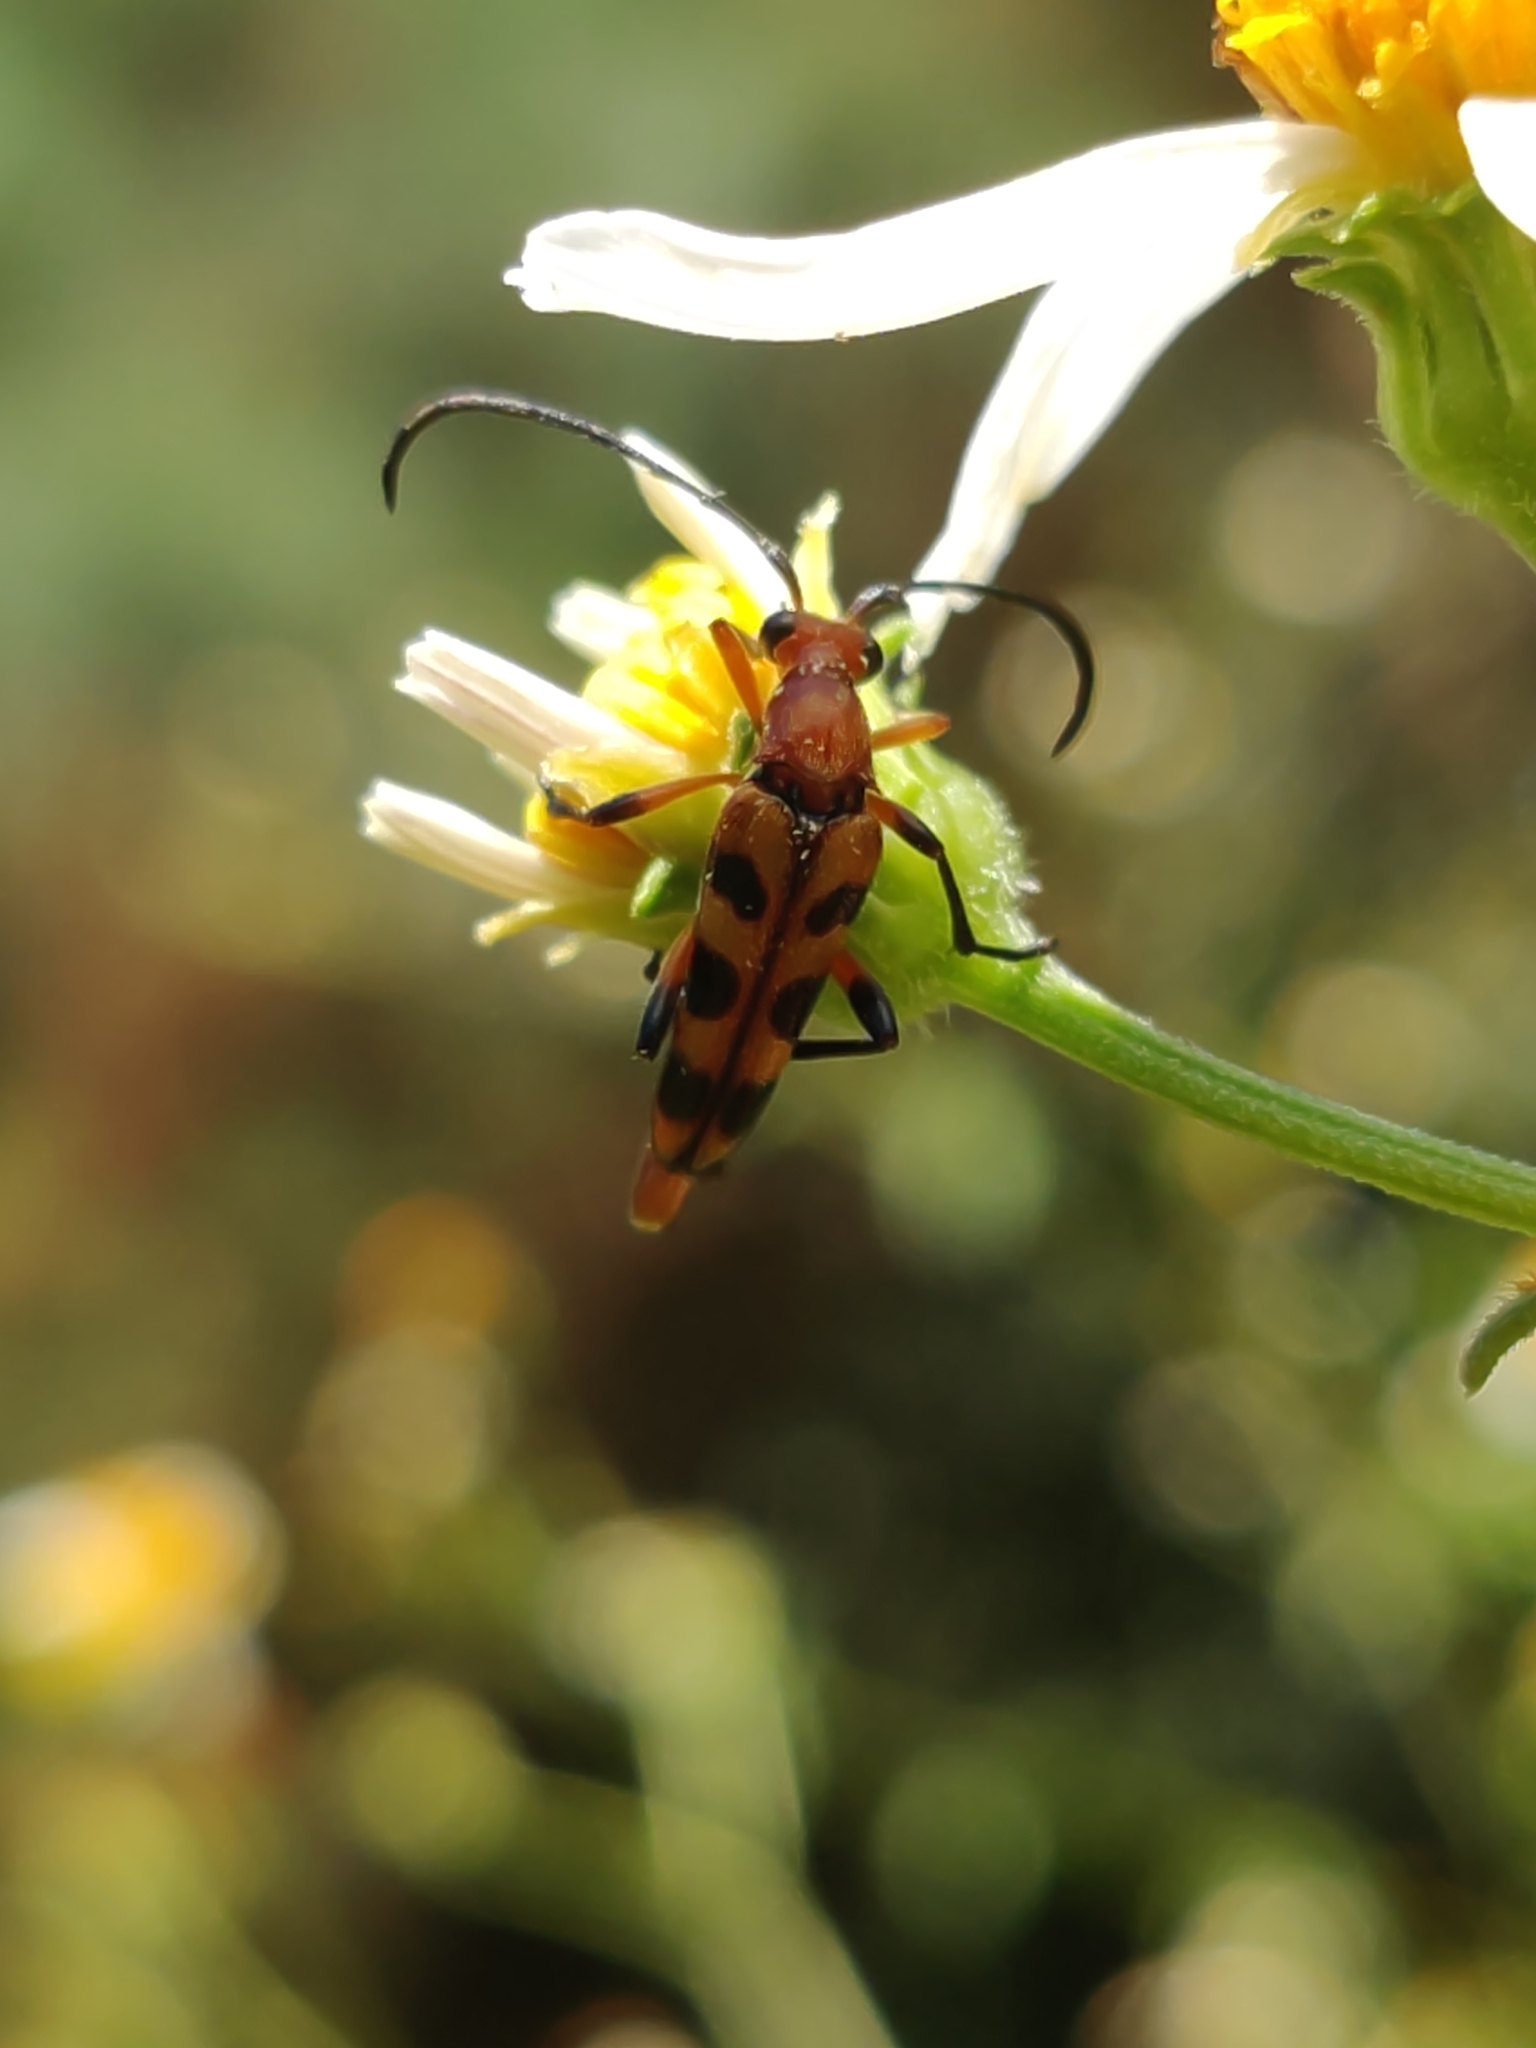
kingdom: Animalia
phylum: Arthropoda
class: Insecta
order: Coleoptera
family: Cerambycidae
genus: Strangalia
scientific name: Strangalia sexnotata
